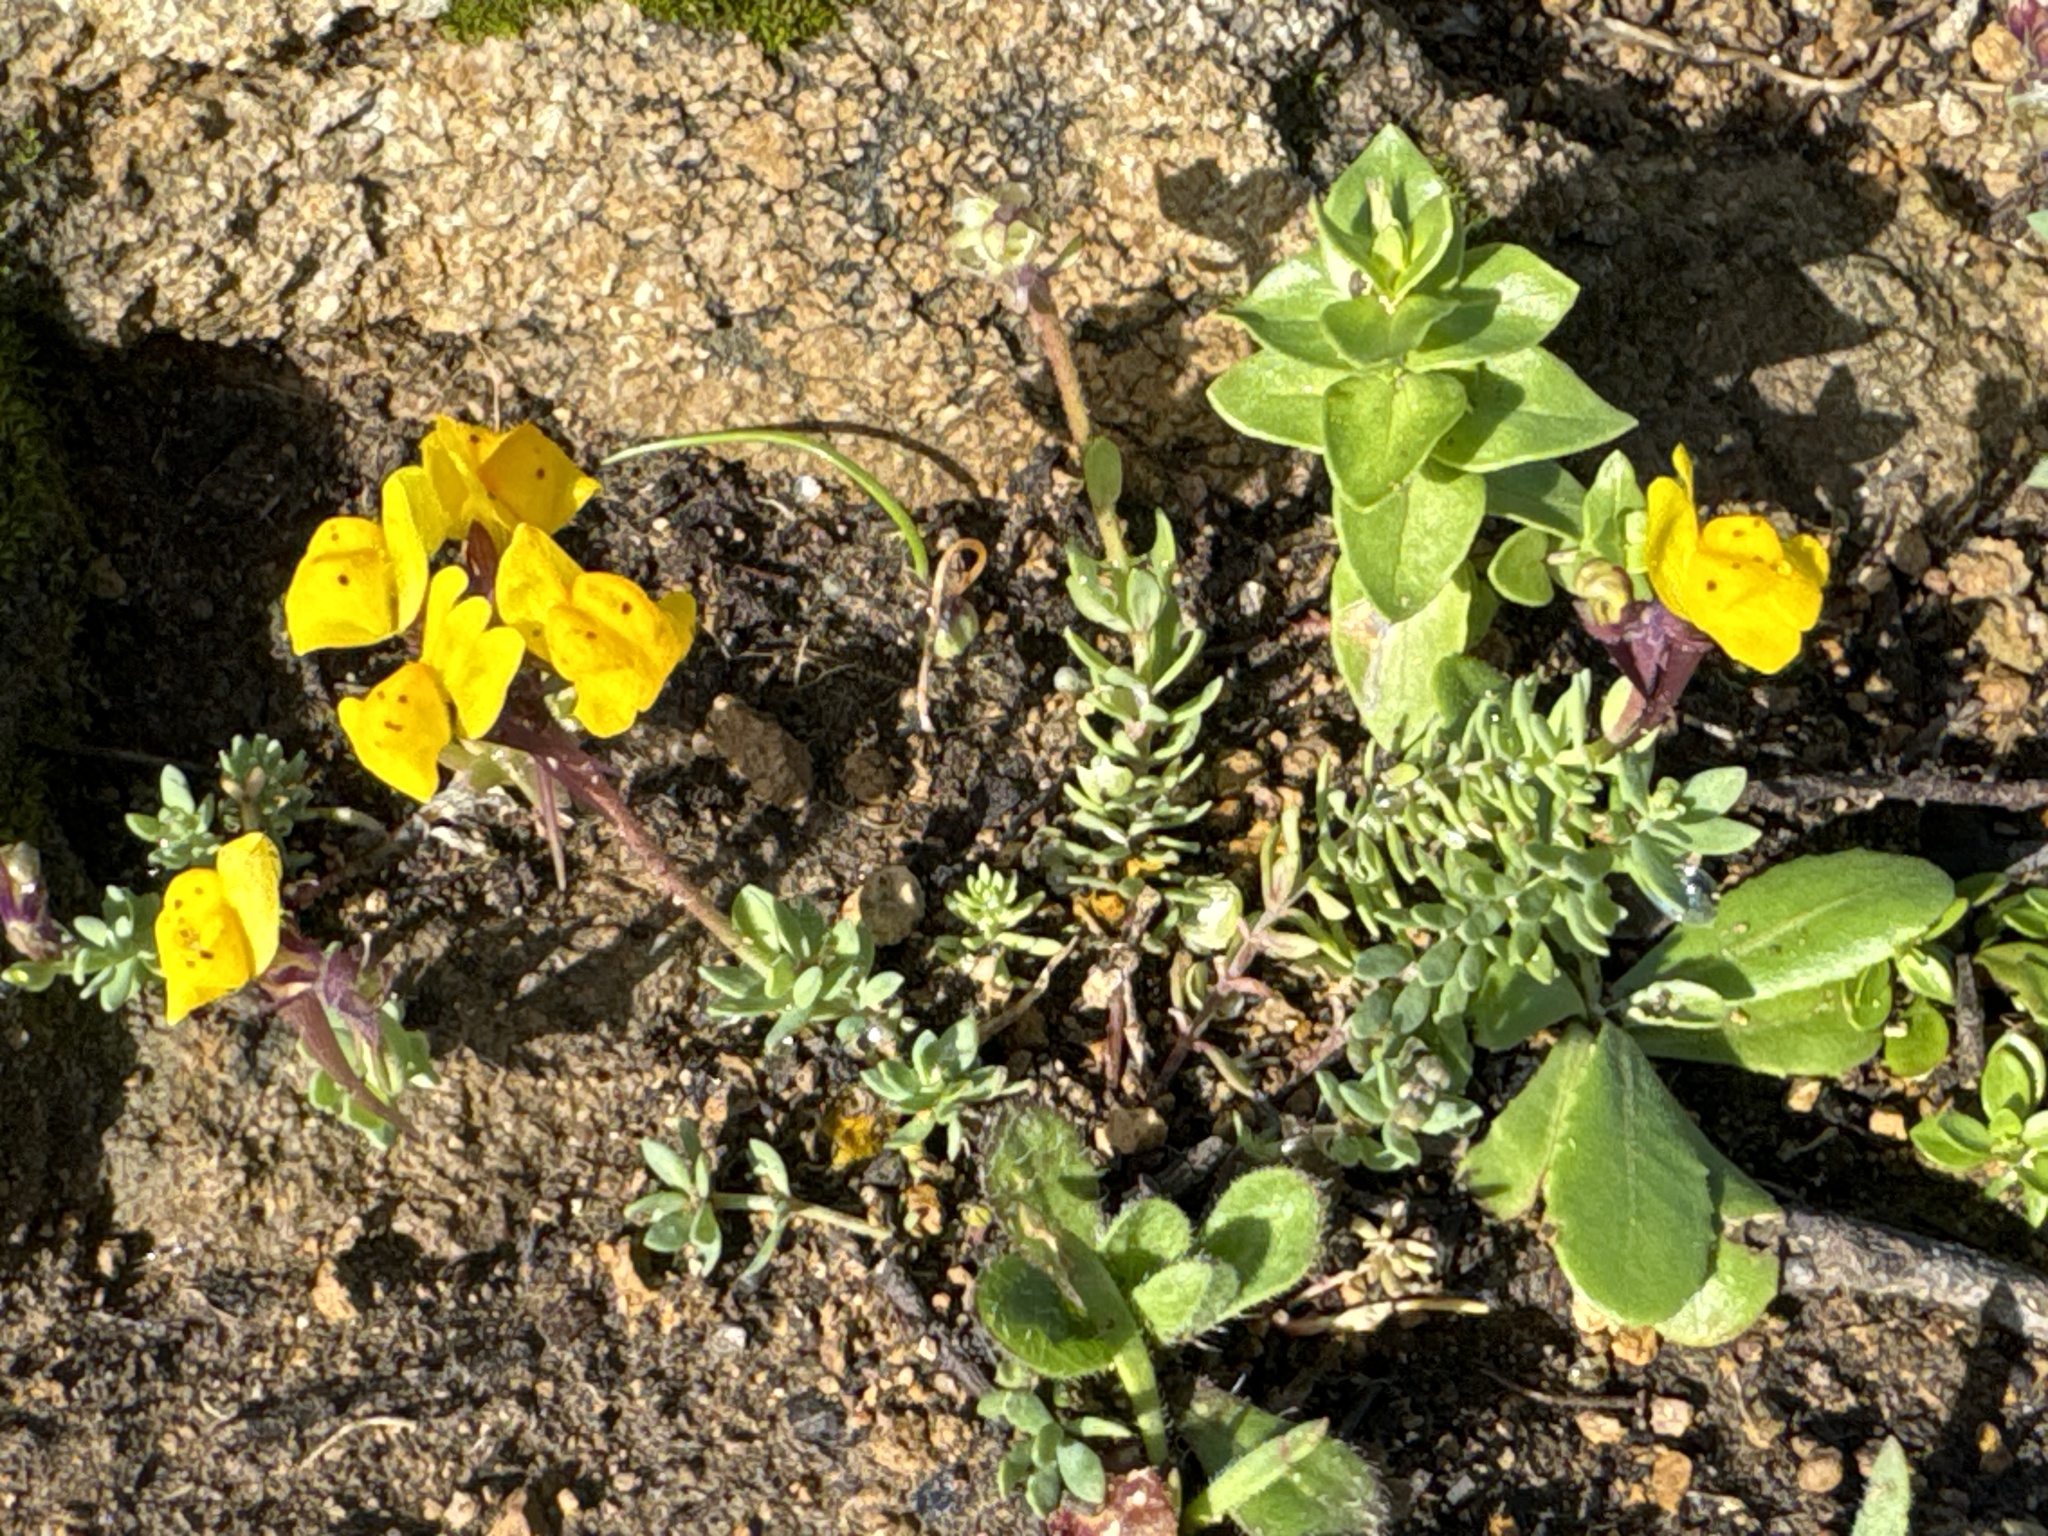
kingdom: Plantae
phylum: Tracheophyta
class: Magnoliopsida
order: Lamiales
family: Plantaginaceae
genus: Linaria
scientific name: Linaria amethystea
